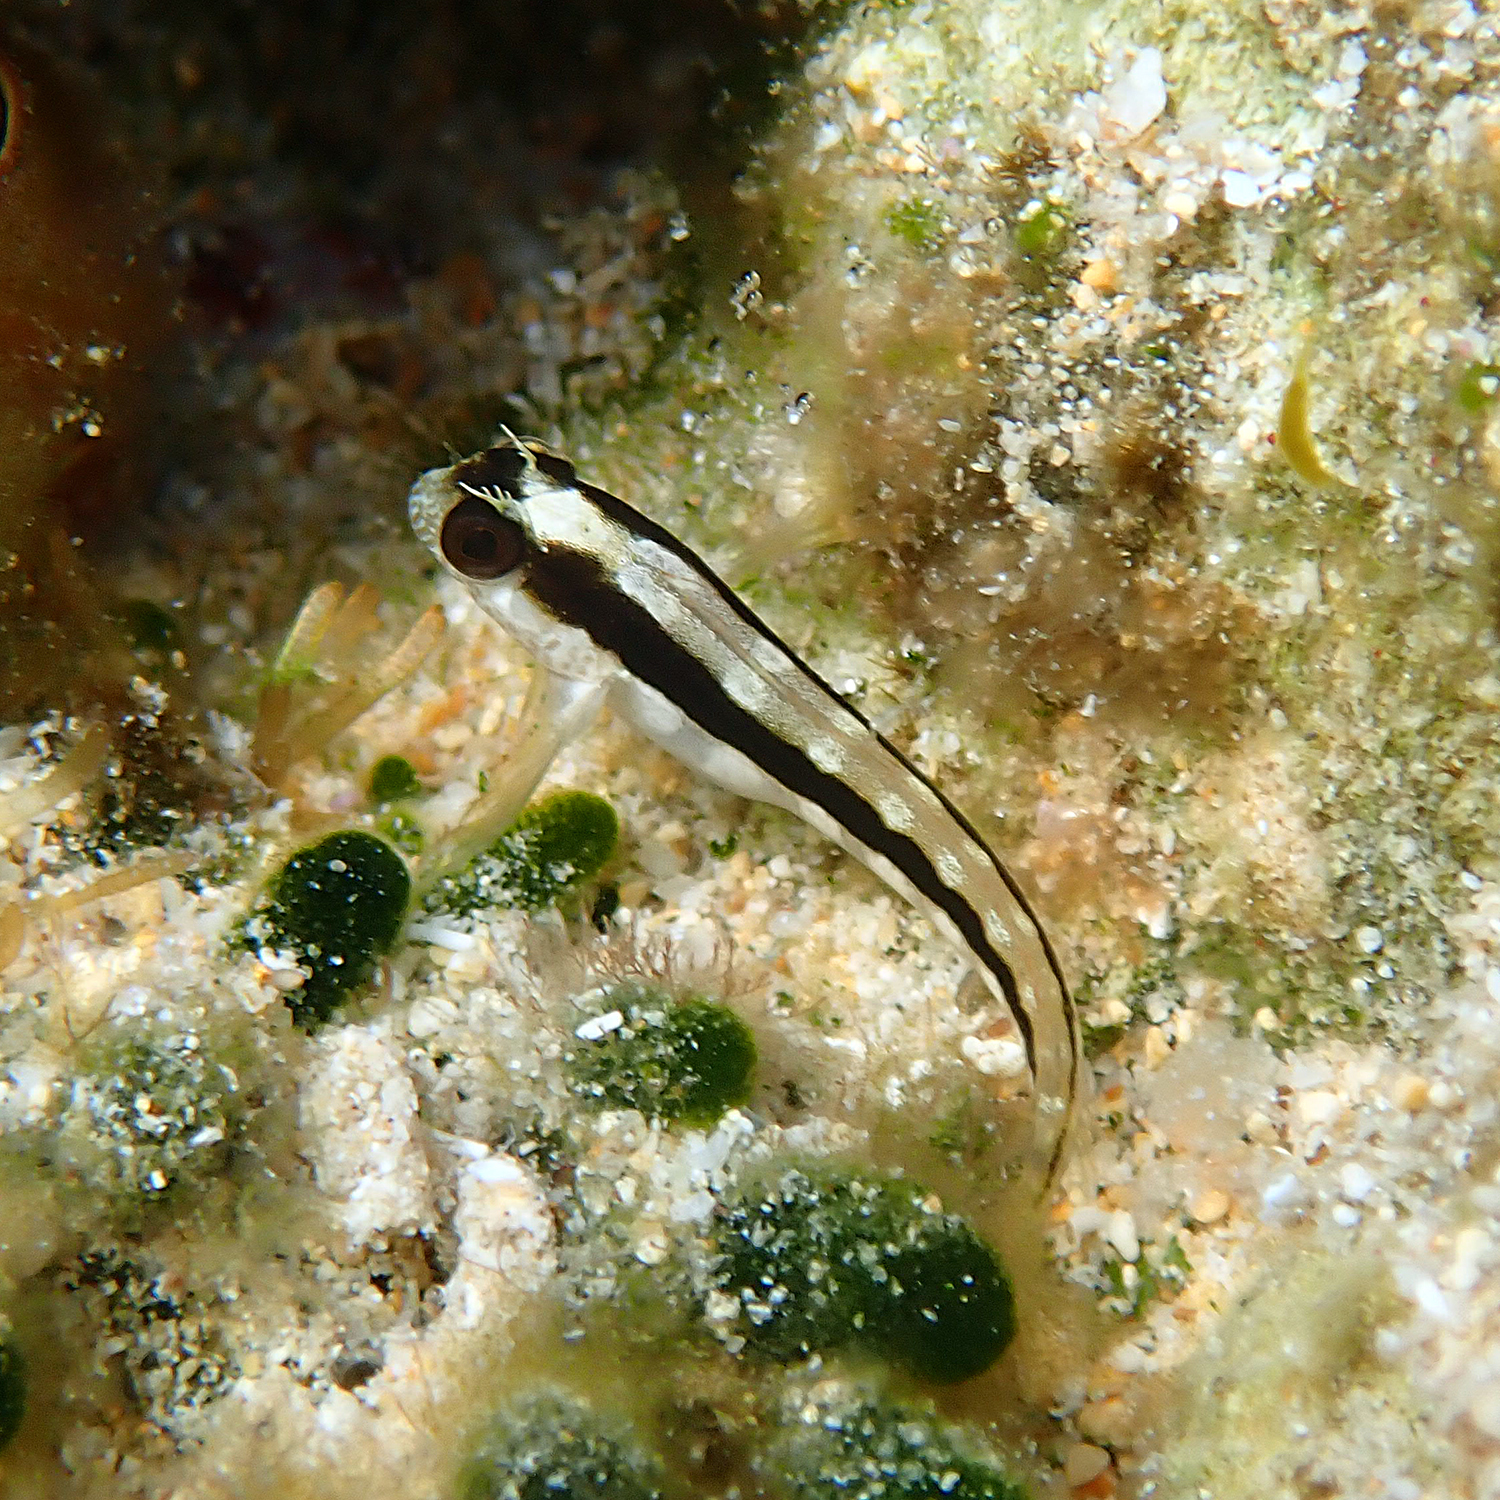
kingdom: Animalia
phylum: Chordata
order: Perciformes
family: Blenniidae
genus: Parablennius
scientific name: Parablennius serratolineatus
